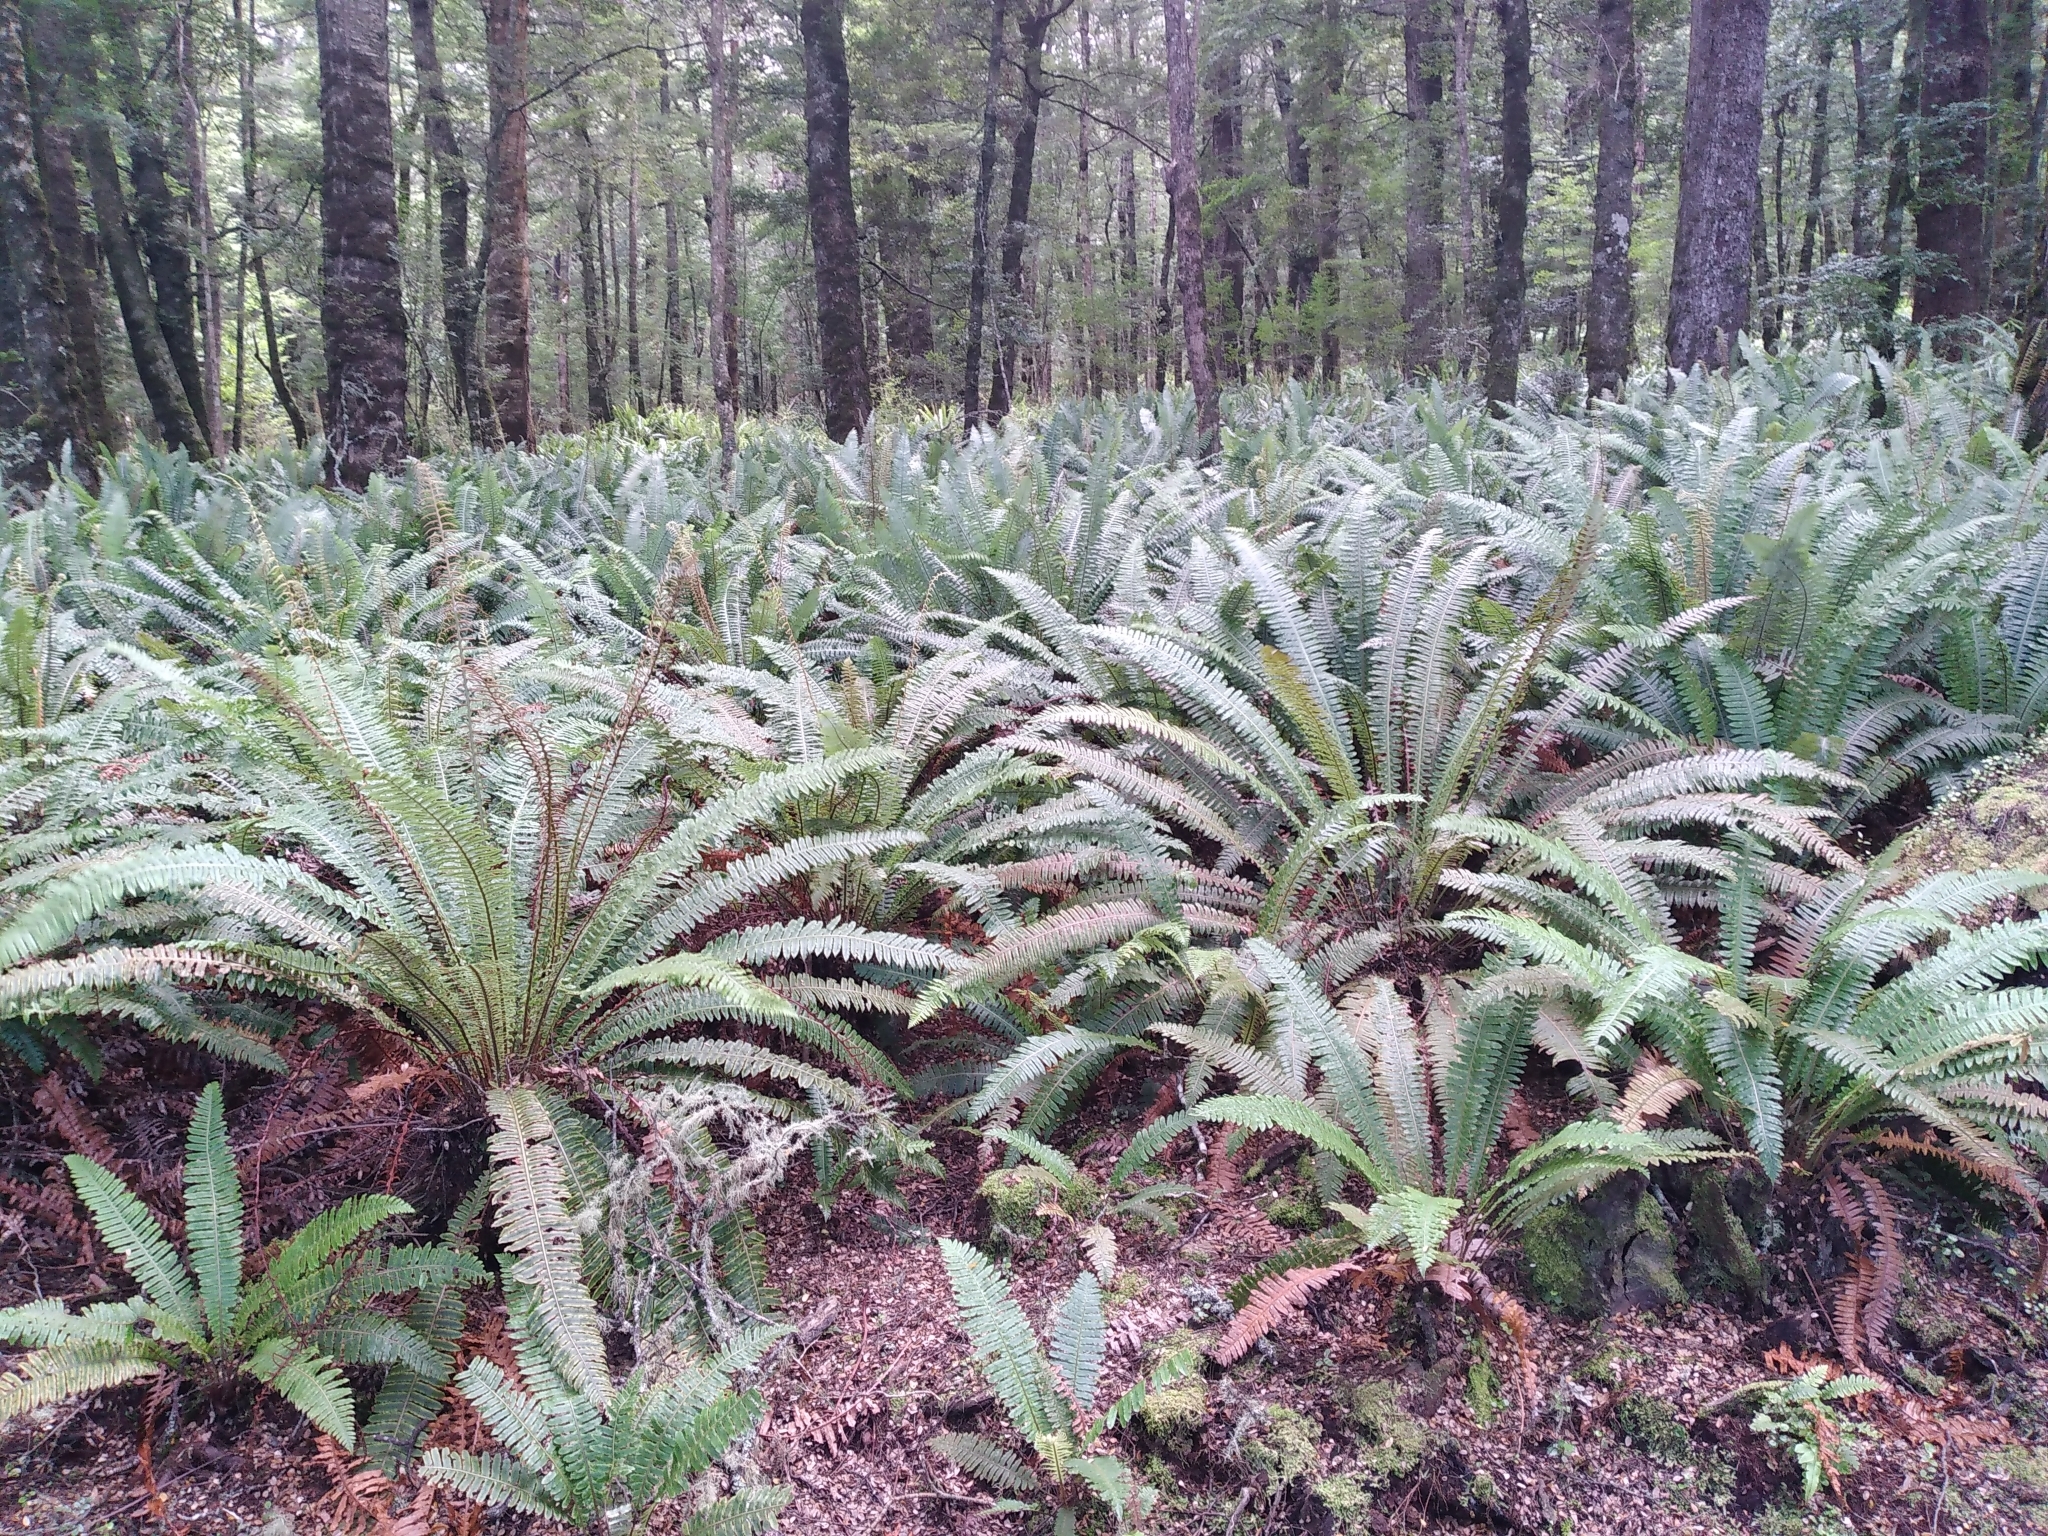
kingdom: Plantae
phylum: Tracheophyta
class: Polypodiopsida
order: Polypodiales
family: Blechnaceae
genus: Lomaria
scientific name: Lomaria discolor
